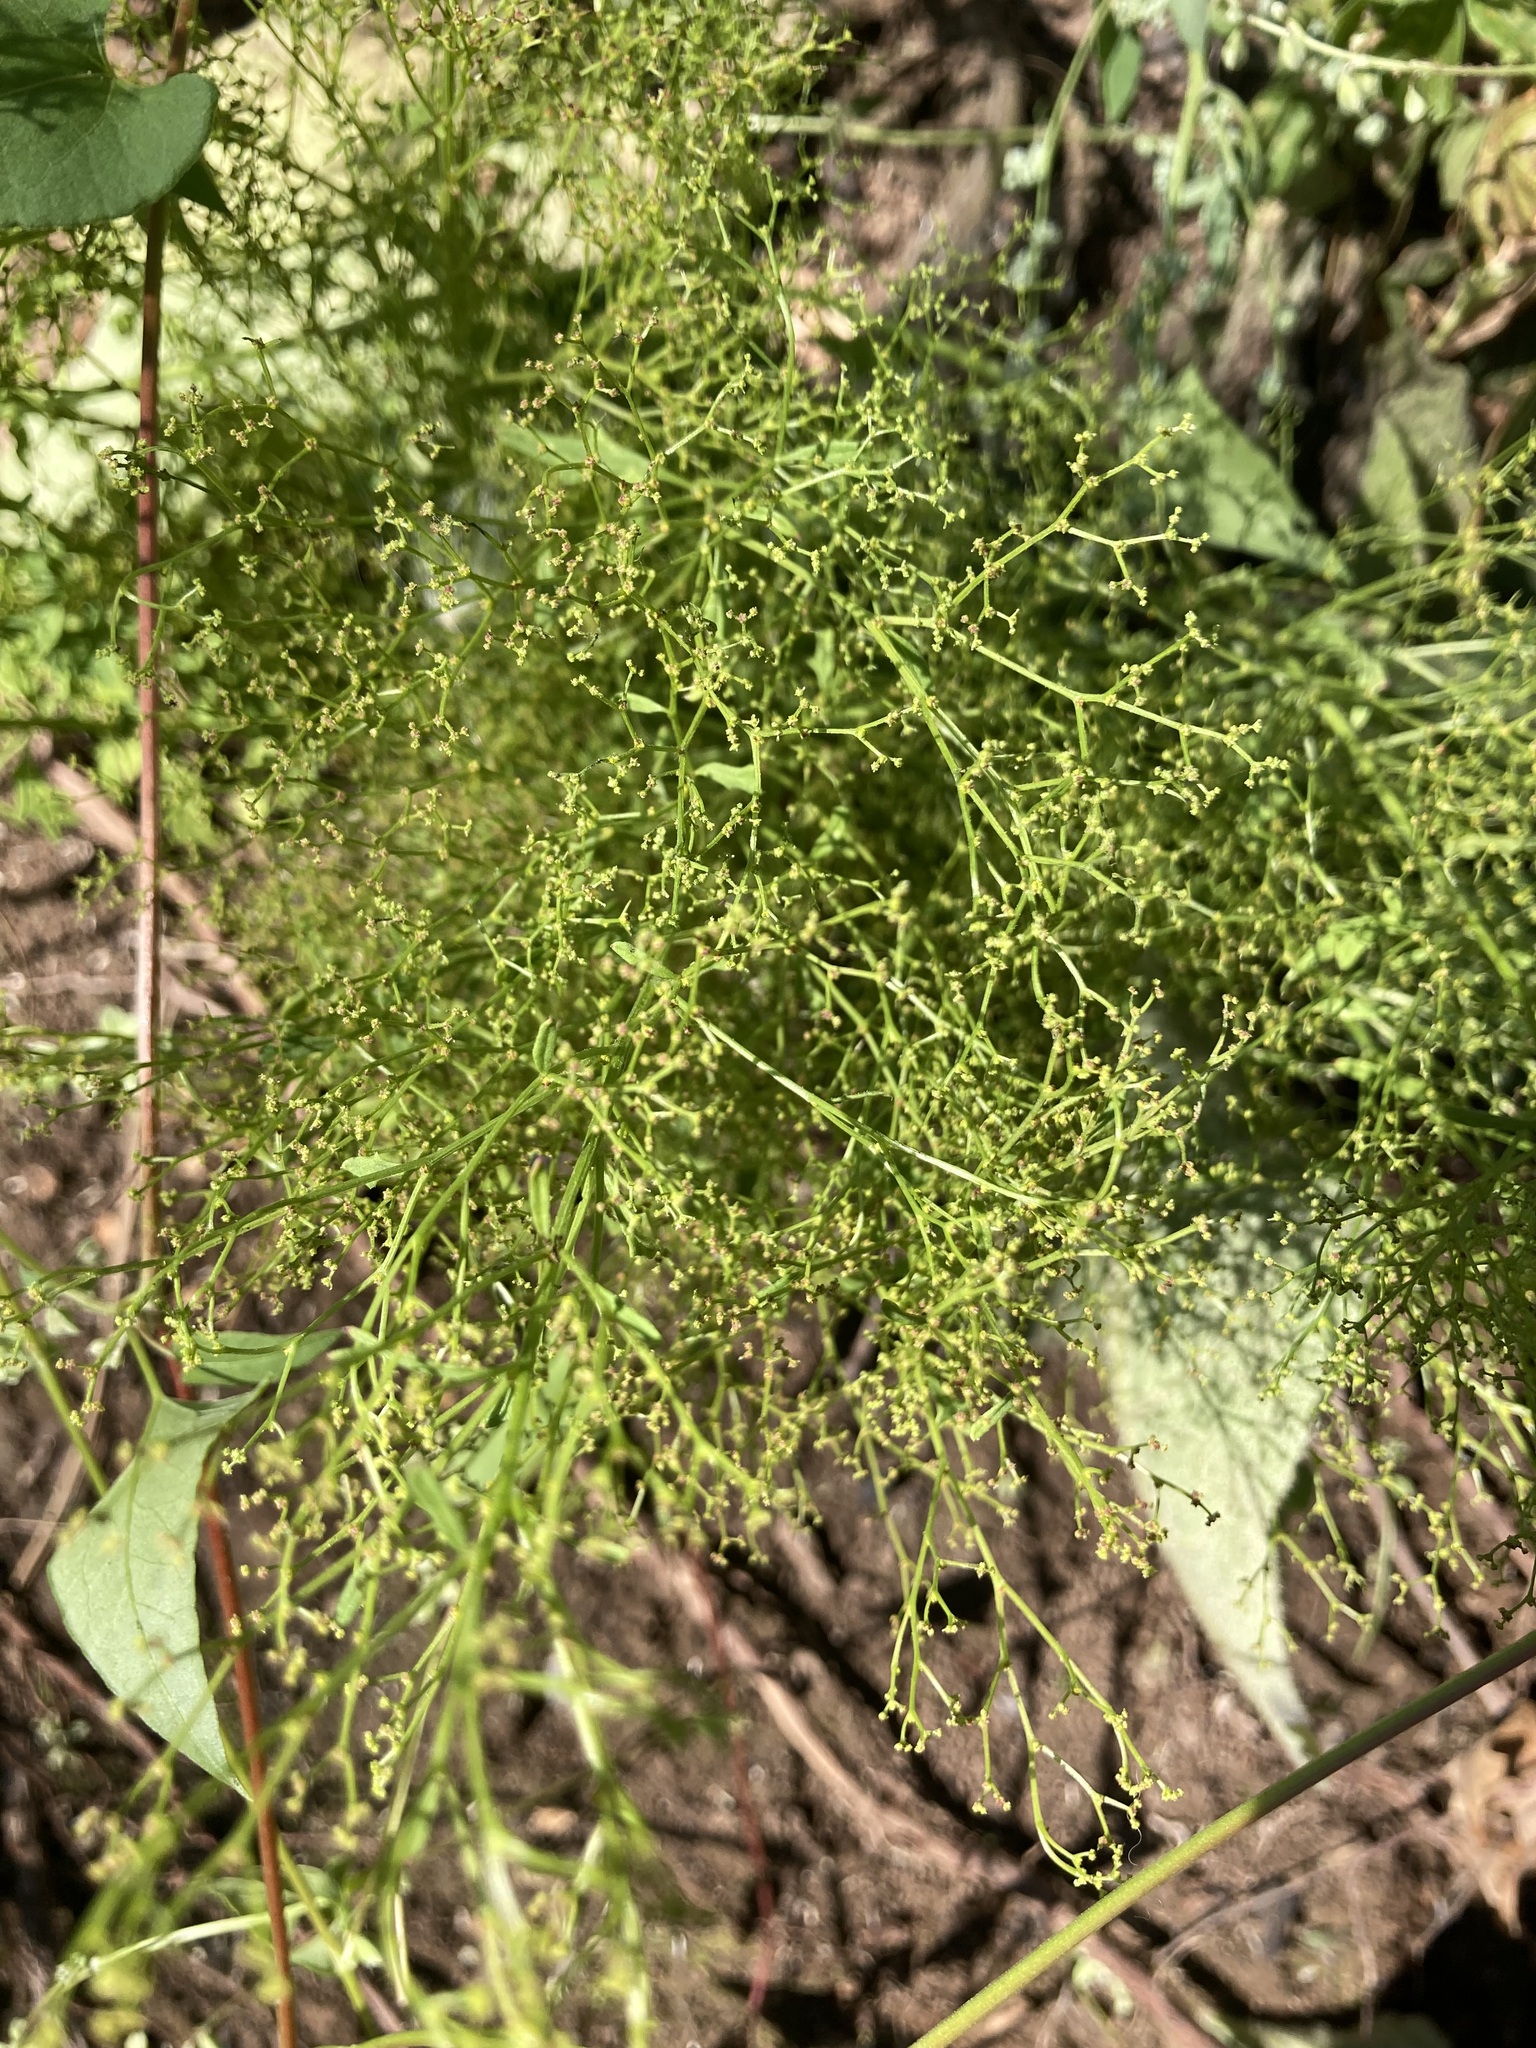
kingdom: Plantae
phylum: Tracheophyta
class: Magnoliopsida
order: Caryophyllales
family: Amaranthaceae
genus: Dysphania
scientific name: Dysphania incisa
